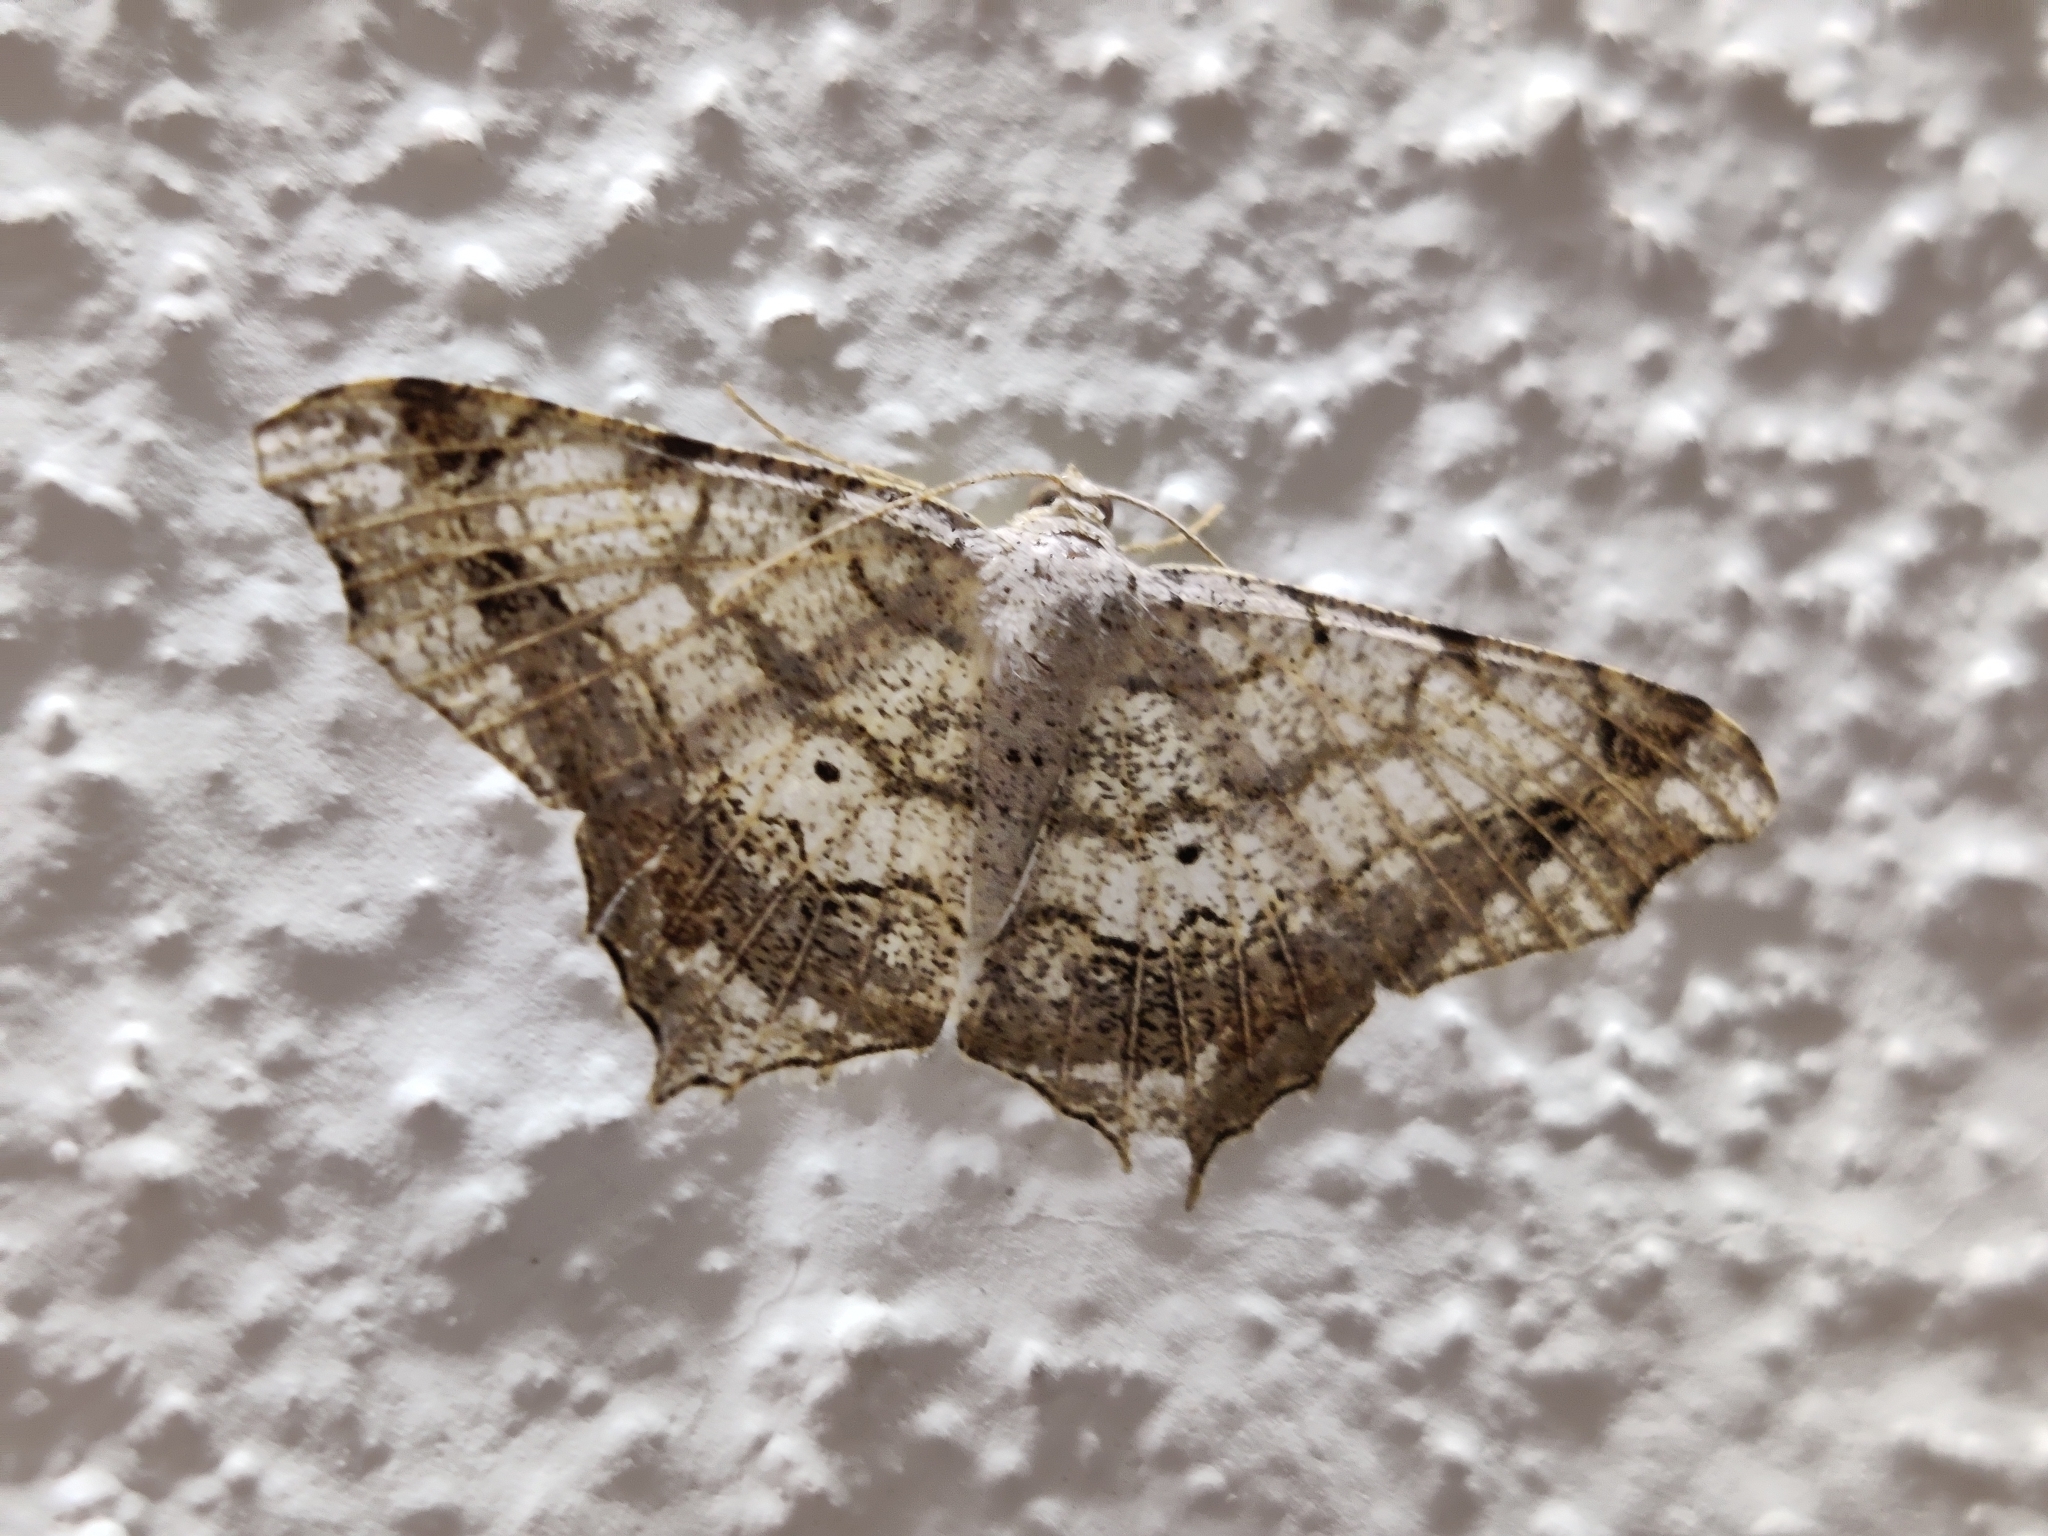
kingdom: Animalia
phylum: Arthropoda
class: Insecta
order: Lepidoptera
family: Geometridae
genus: Chiasmia
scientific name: Chiasmia emersaria
